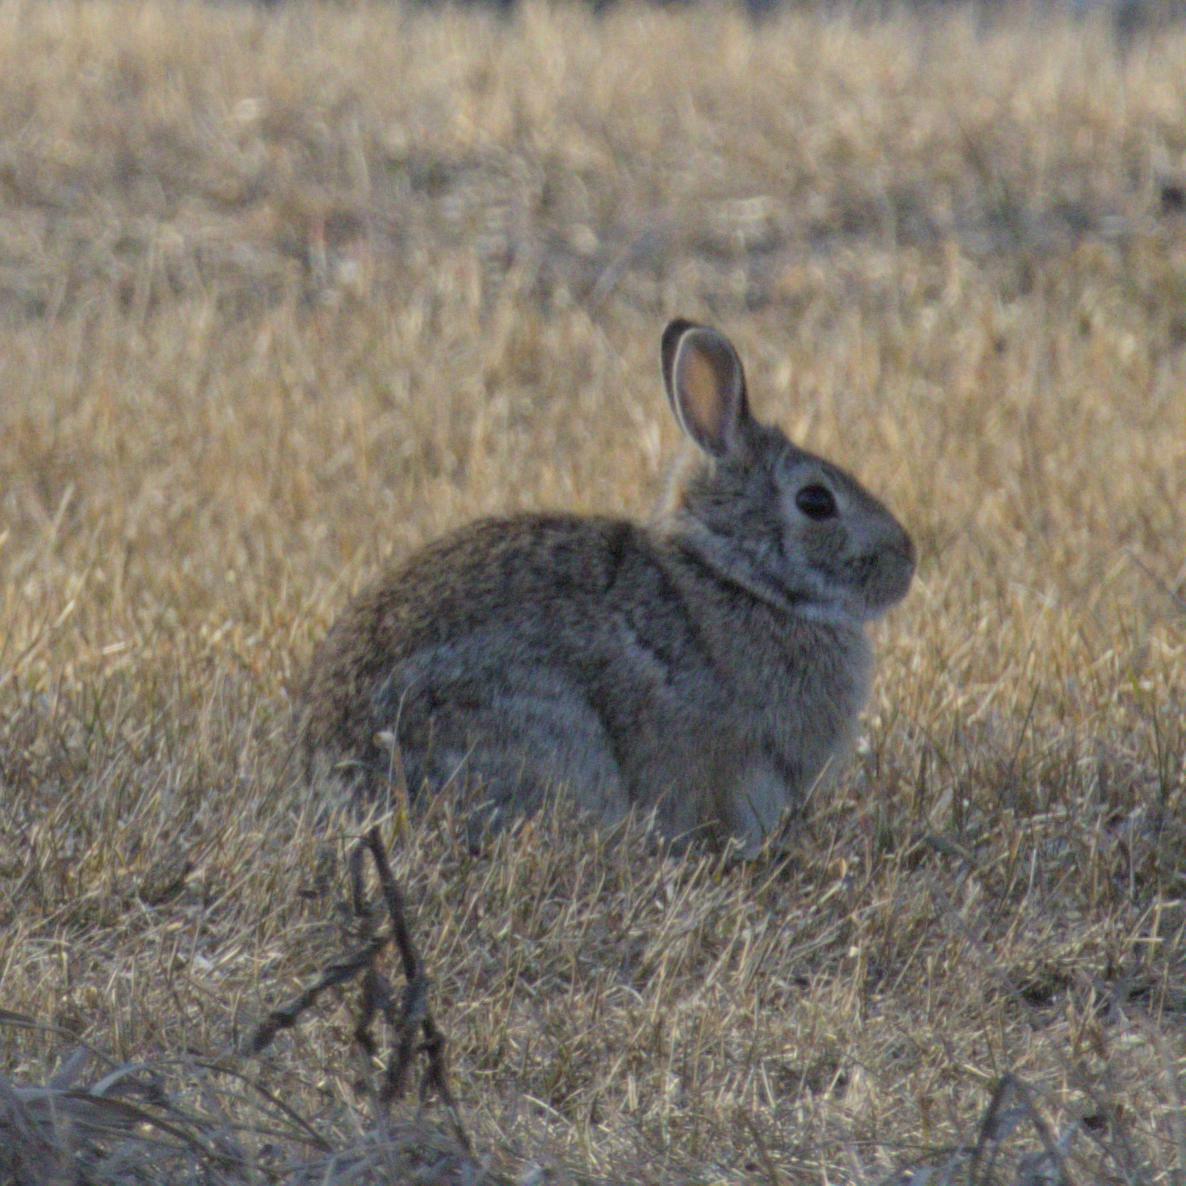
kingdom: Animalia
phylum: Chordata
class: Mammalia
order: Lagomorpha
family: Leporidae
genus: Sylvilagus
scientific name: Sylvilagus floridanus
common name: Eastern cottontail
